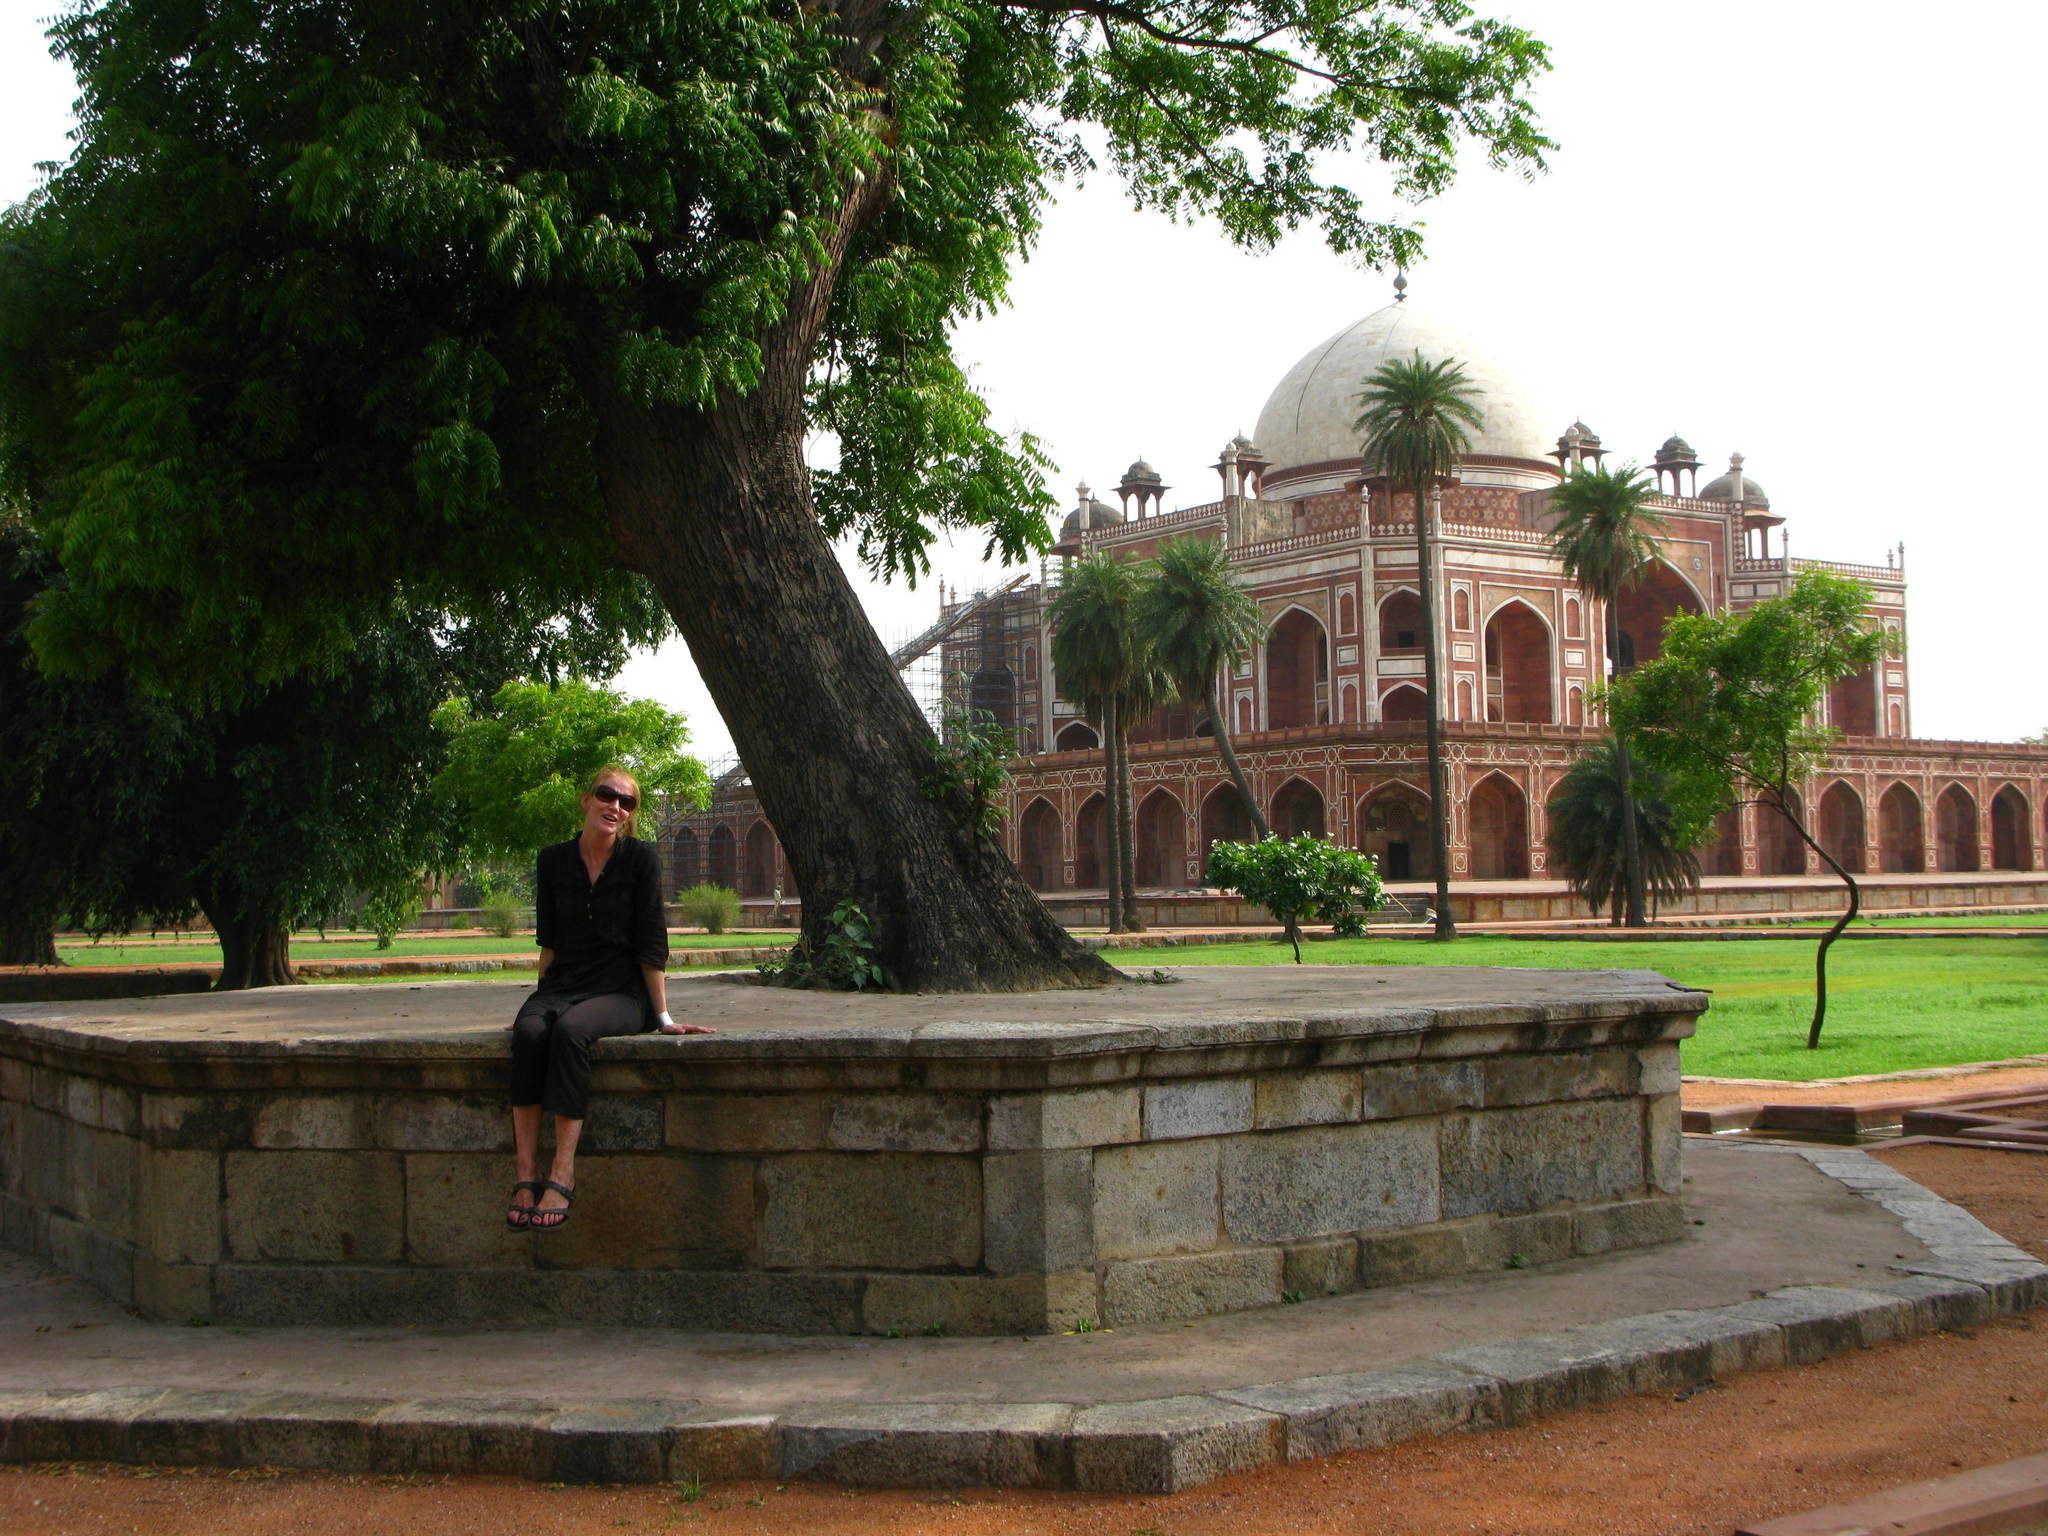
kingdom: Plantae
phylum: Tracheophyta
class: Magnoliopsida
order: Sapindales
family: Meliaceae
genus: Azadirachta
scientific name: Azadirachta indica
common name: Neem
